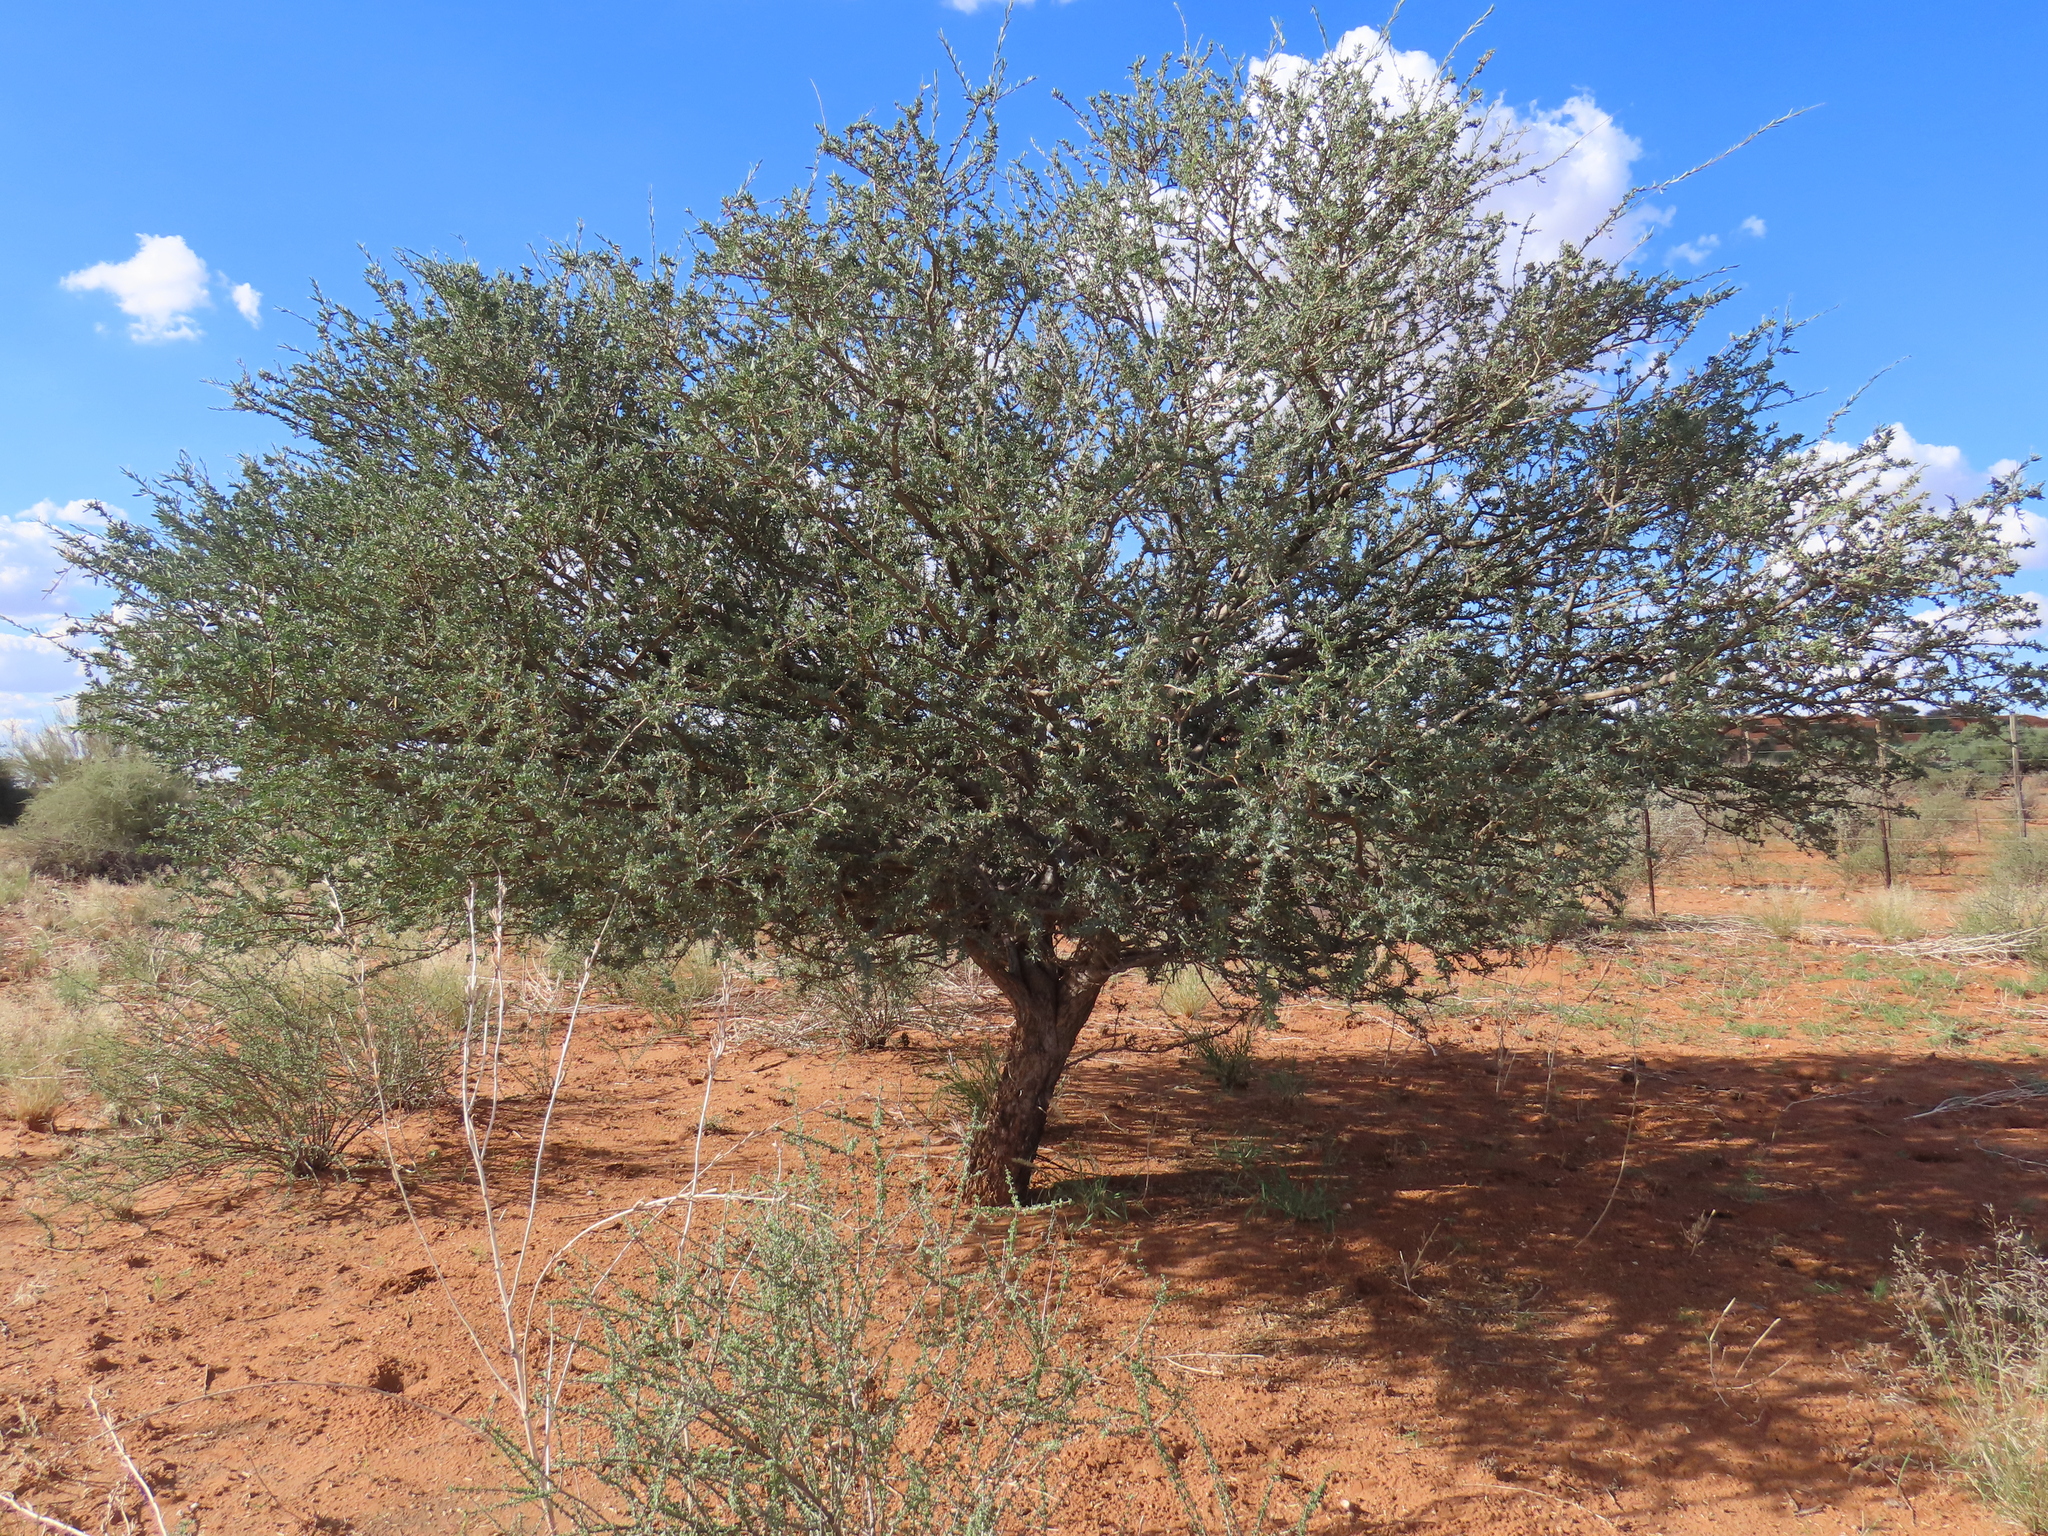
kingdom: Plantae
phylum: Tracheophyta
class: Magnoliopsida
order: Brassicales
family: Capparaceae
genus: Boscia
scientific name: Boscia albitrunca
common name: Caper bush
